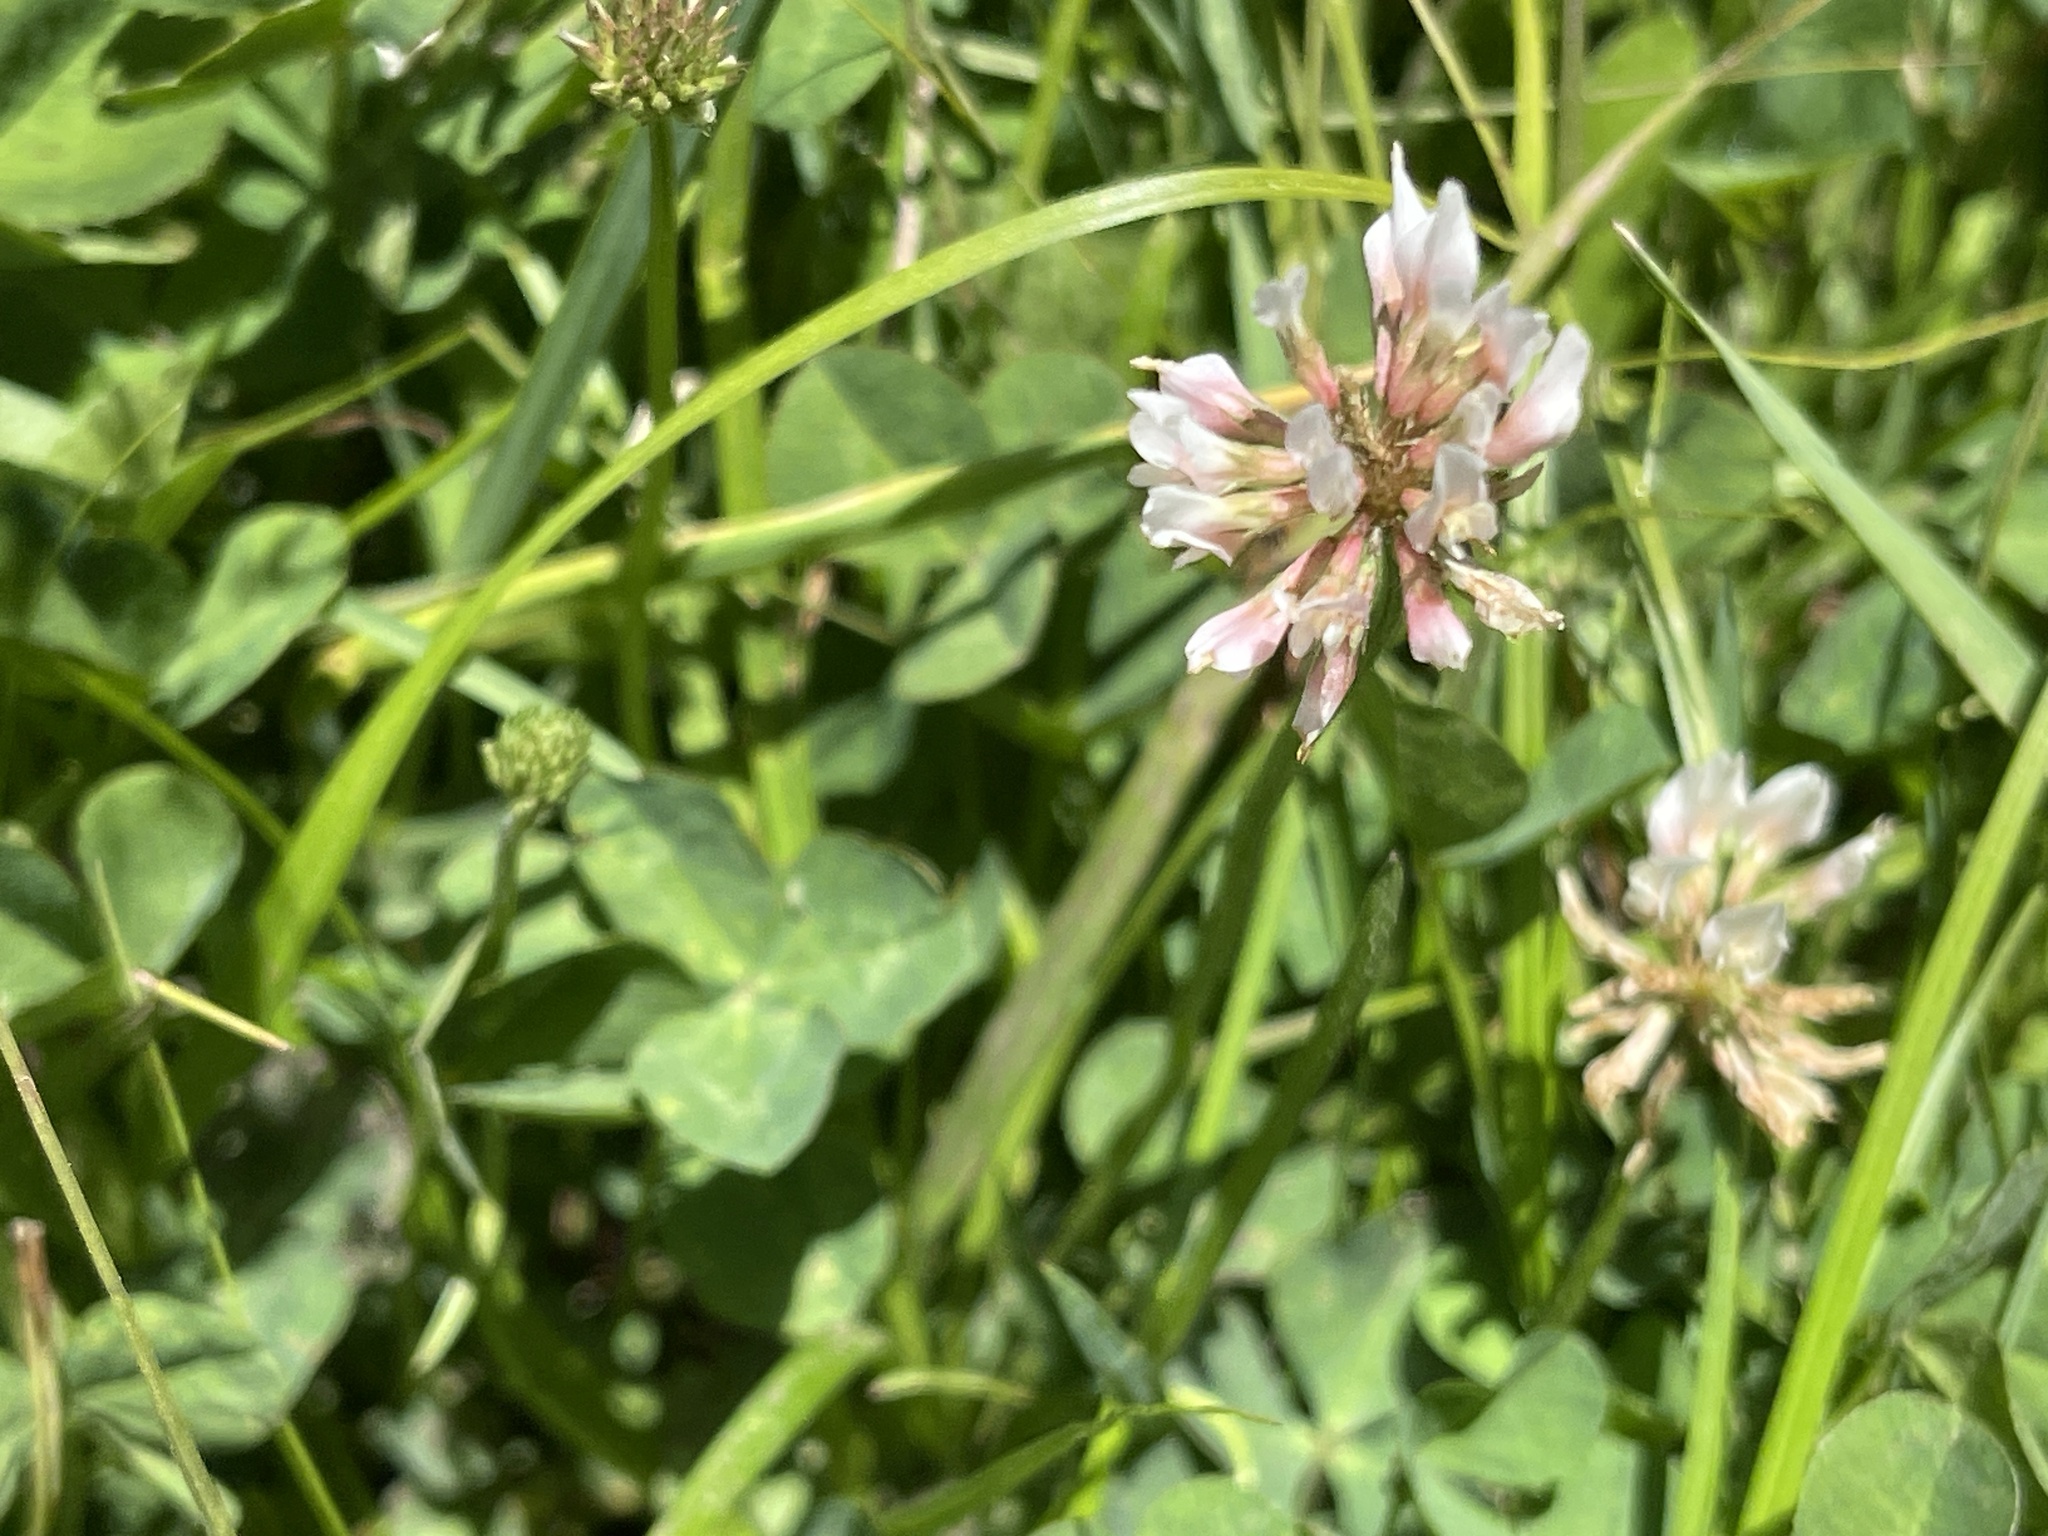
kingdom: Plantae
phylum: Tracheophyta
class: Magnoliopsida
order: Fabales
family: Fabaceae
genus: Trifolium
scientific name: Trifolium repens
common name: White clover
